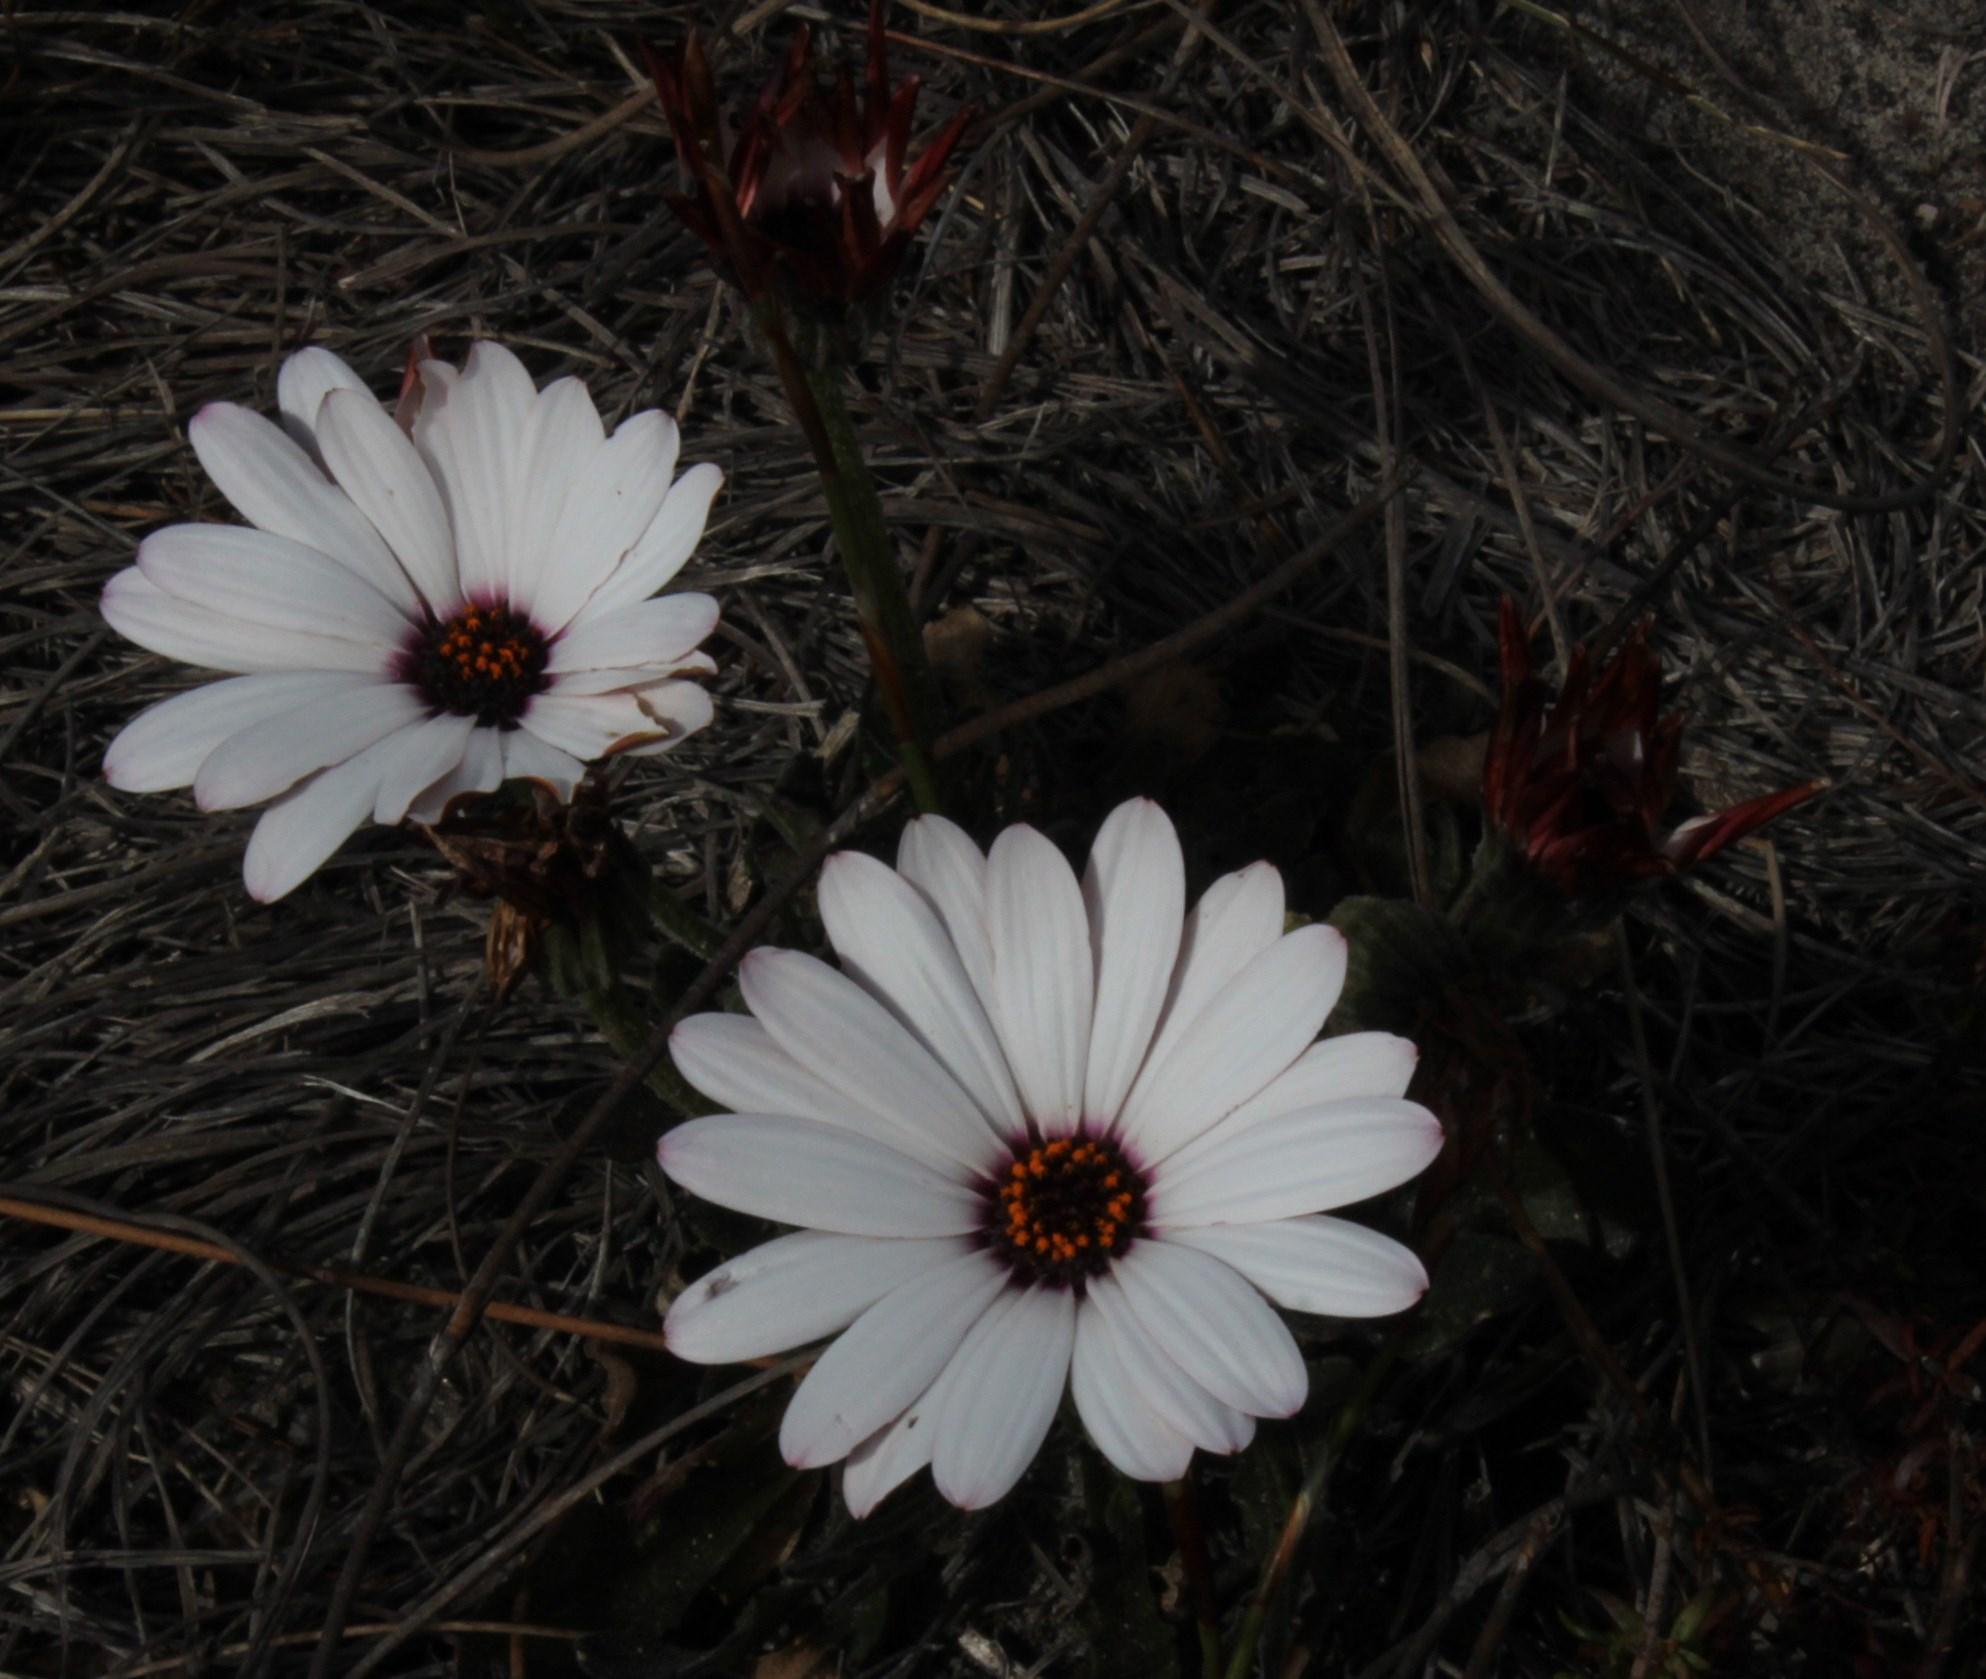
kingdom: Plantae
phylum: Tracheophyta
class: Magnoliopsida
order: Asterales
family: Asteraceae
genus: Dimorphotheca
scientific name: Dimorphotheca nudicaulis
